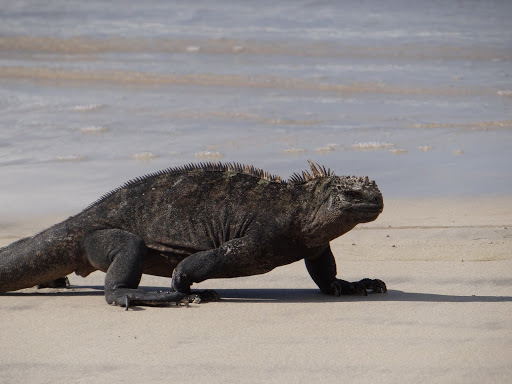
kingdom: Animalia
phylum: Chordata
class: Squamata
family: Iguanidae
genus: Amblyrhynchus
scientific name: Amblyrhynchus cristatus
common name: Marine iguana
